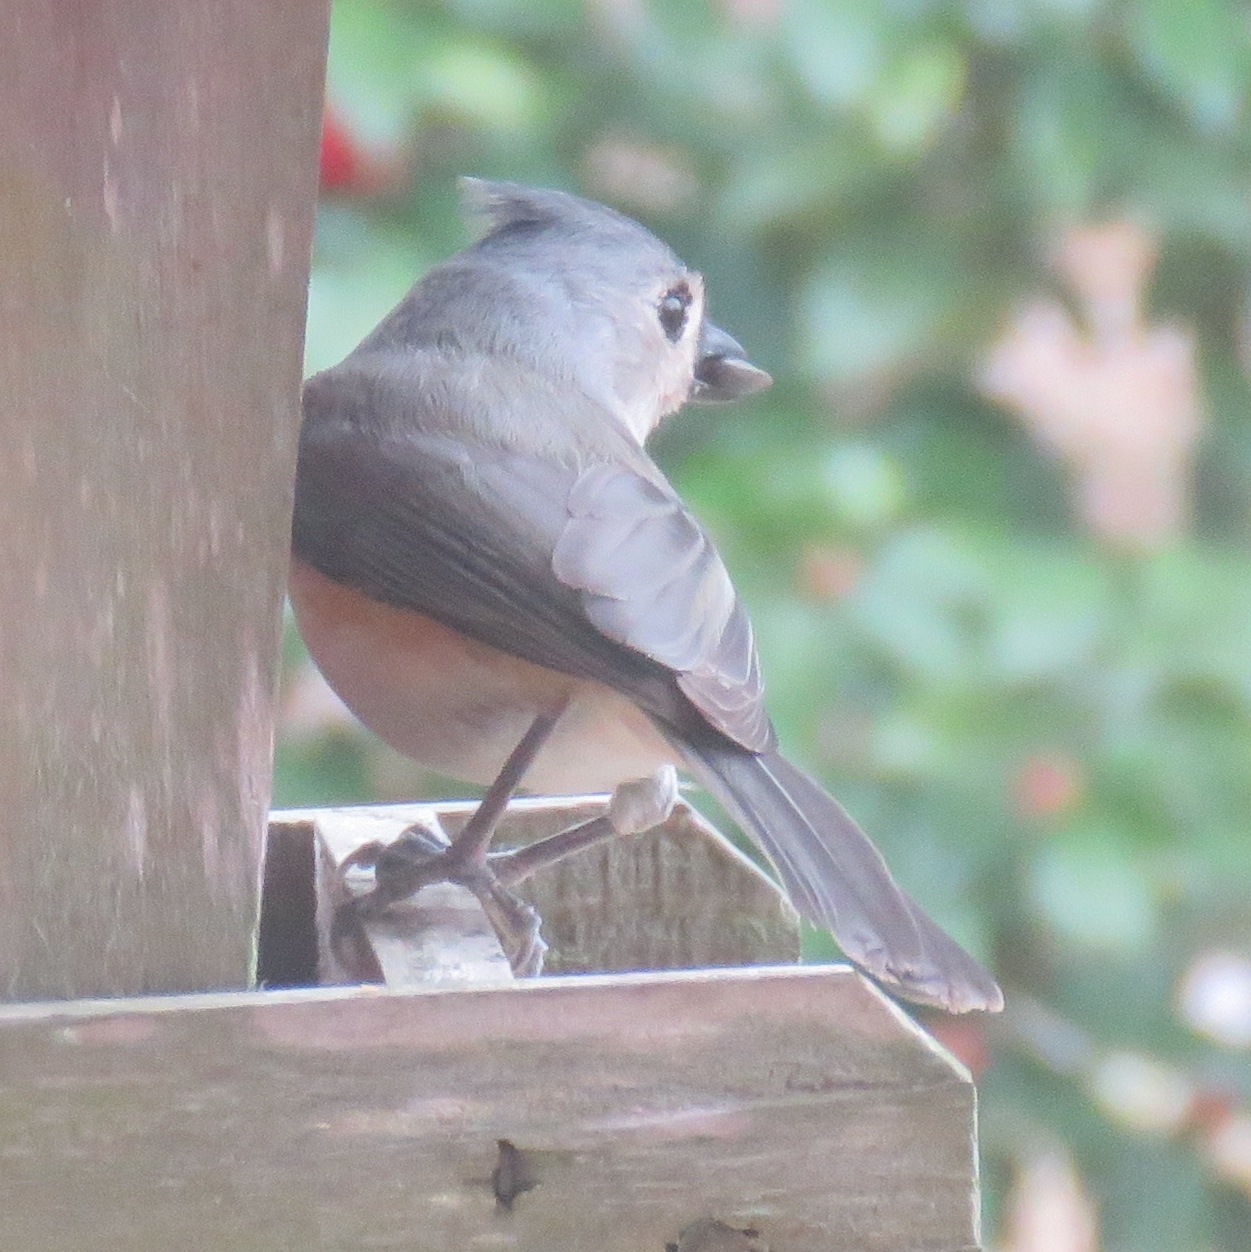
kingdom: Animalia
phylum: Chordata
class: Aves
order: Passeriformes
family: Paridae
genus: Baeolophus
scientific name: Baeolophus bicolor
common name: Tufted titmouse
